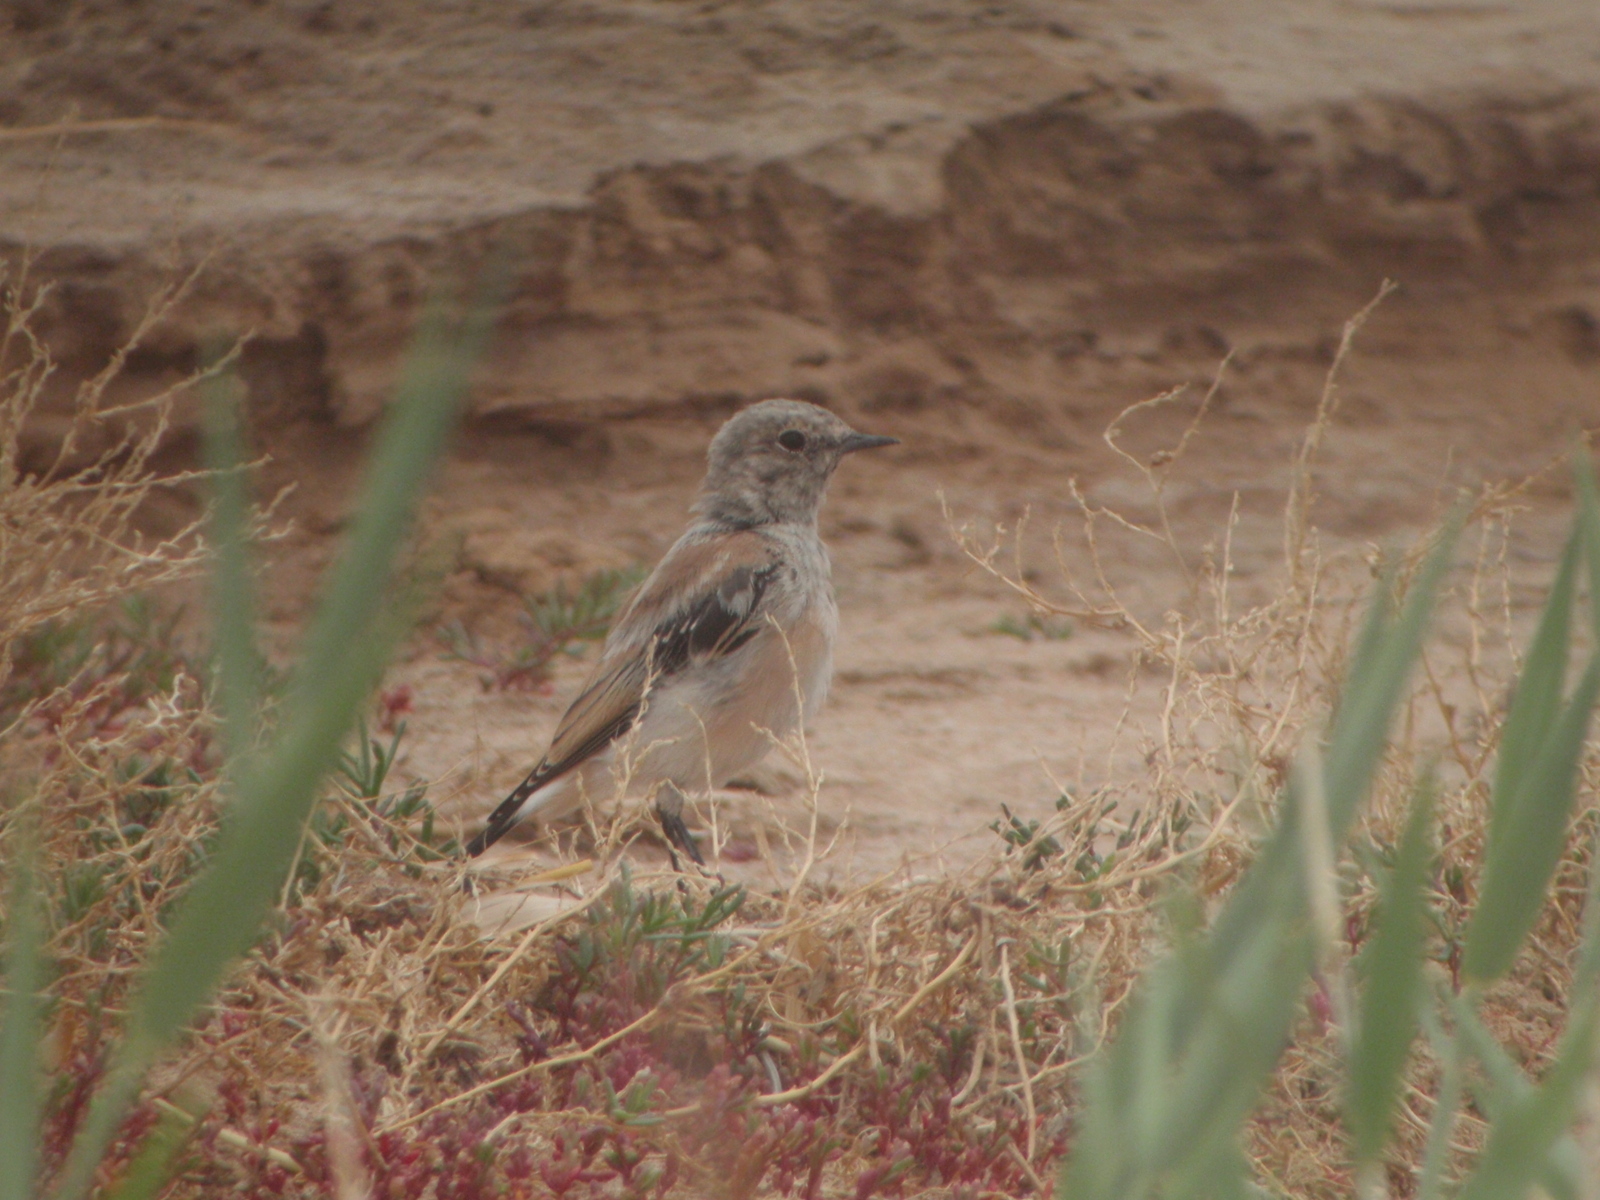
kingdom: Animalia
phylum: Chordata
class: Aves
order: Passeriformes
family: Muscicapidae
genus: Oenanthe
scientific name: Oenanthe deserti
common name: Desert wheatear
